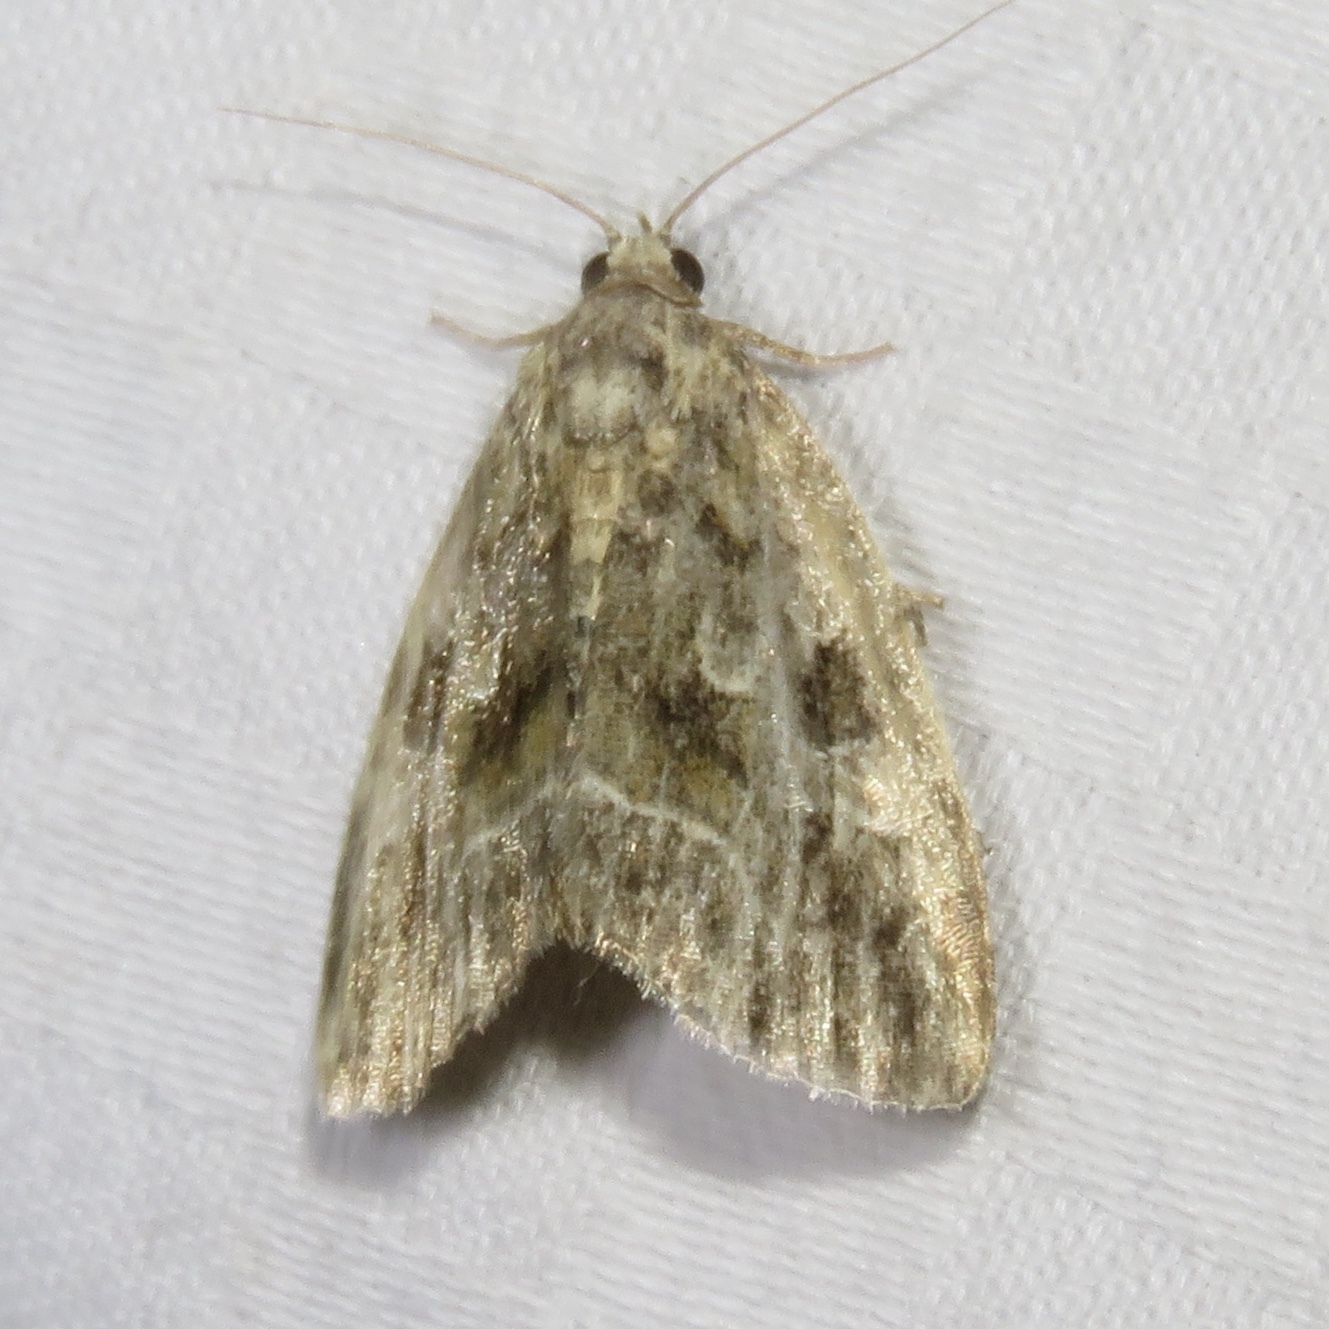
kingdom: Animalia
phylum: Arthropoda
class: Insecta
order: Lepidoptera
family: Noctuidae
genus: Protodeltote
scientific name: Protodeltote muscosula
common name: Large mossy glyph
